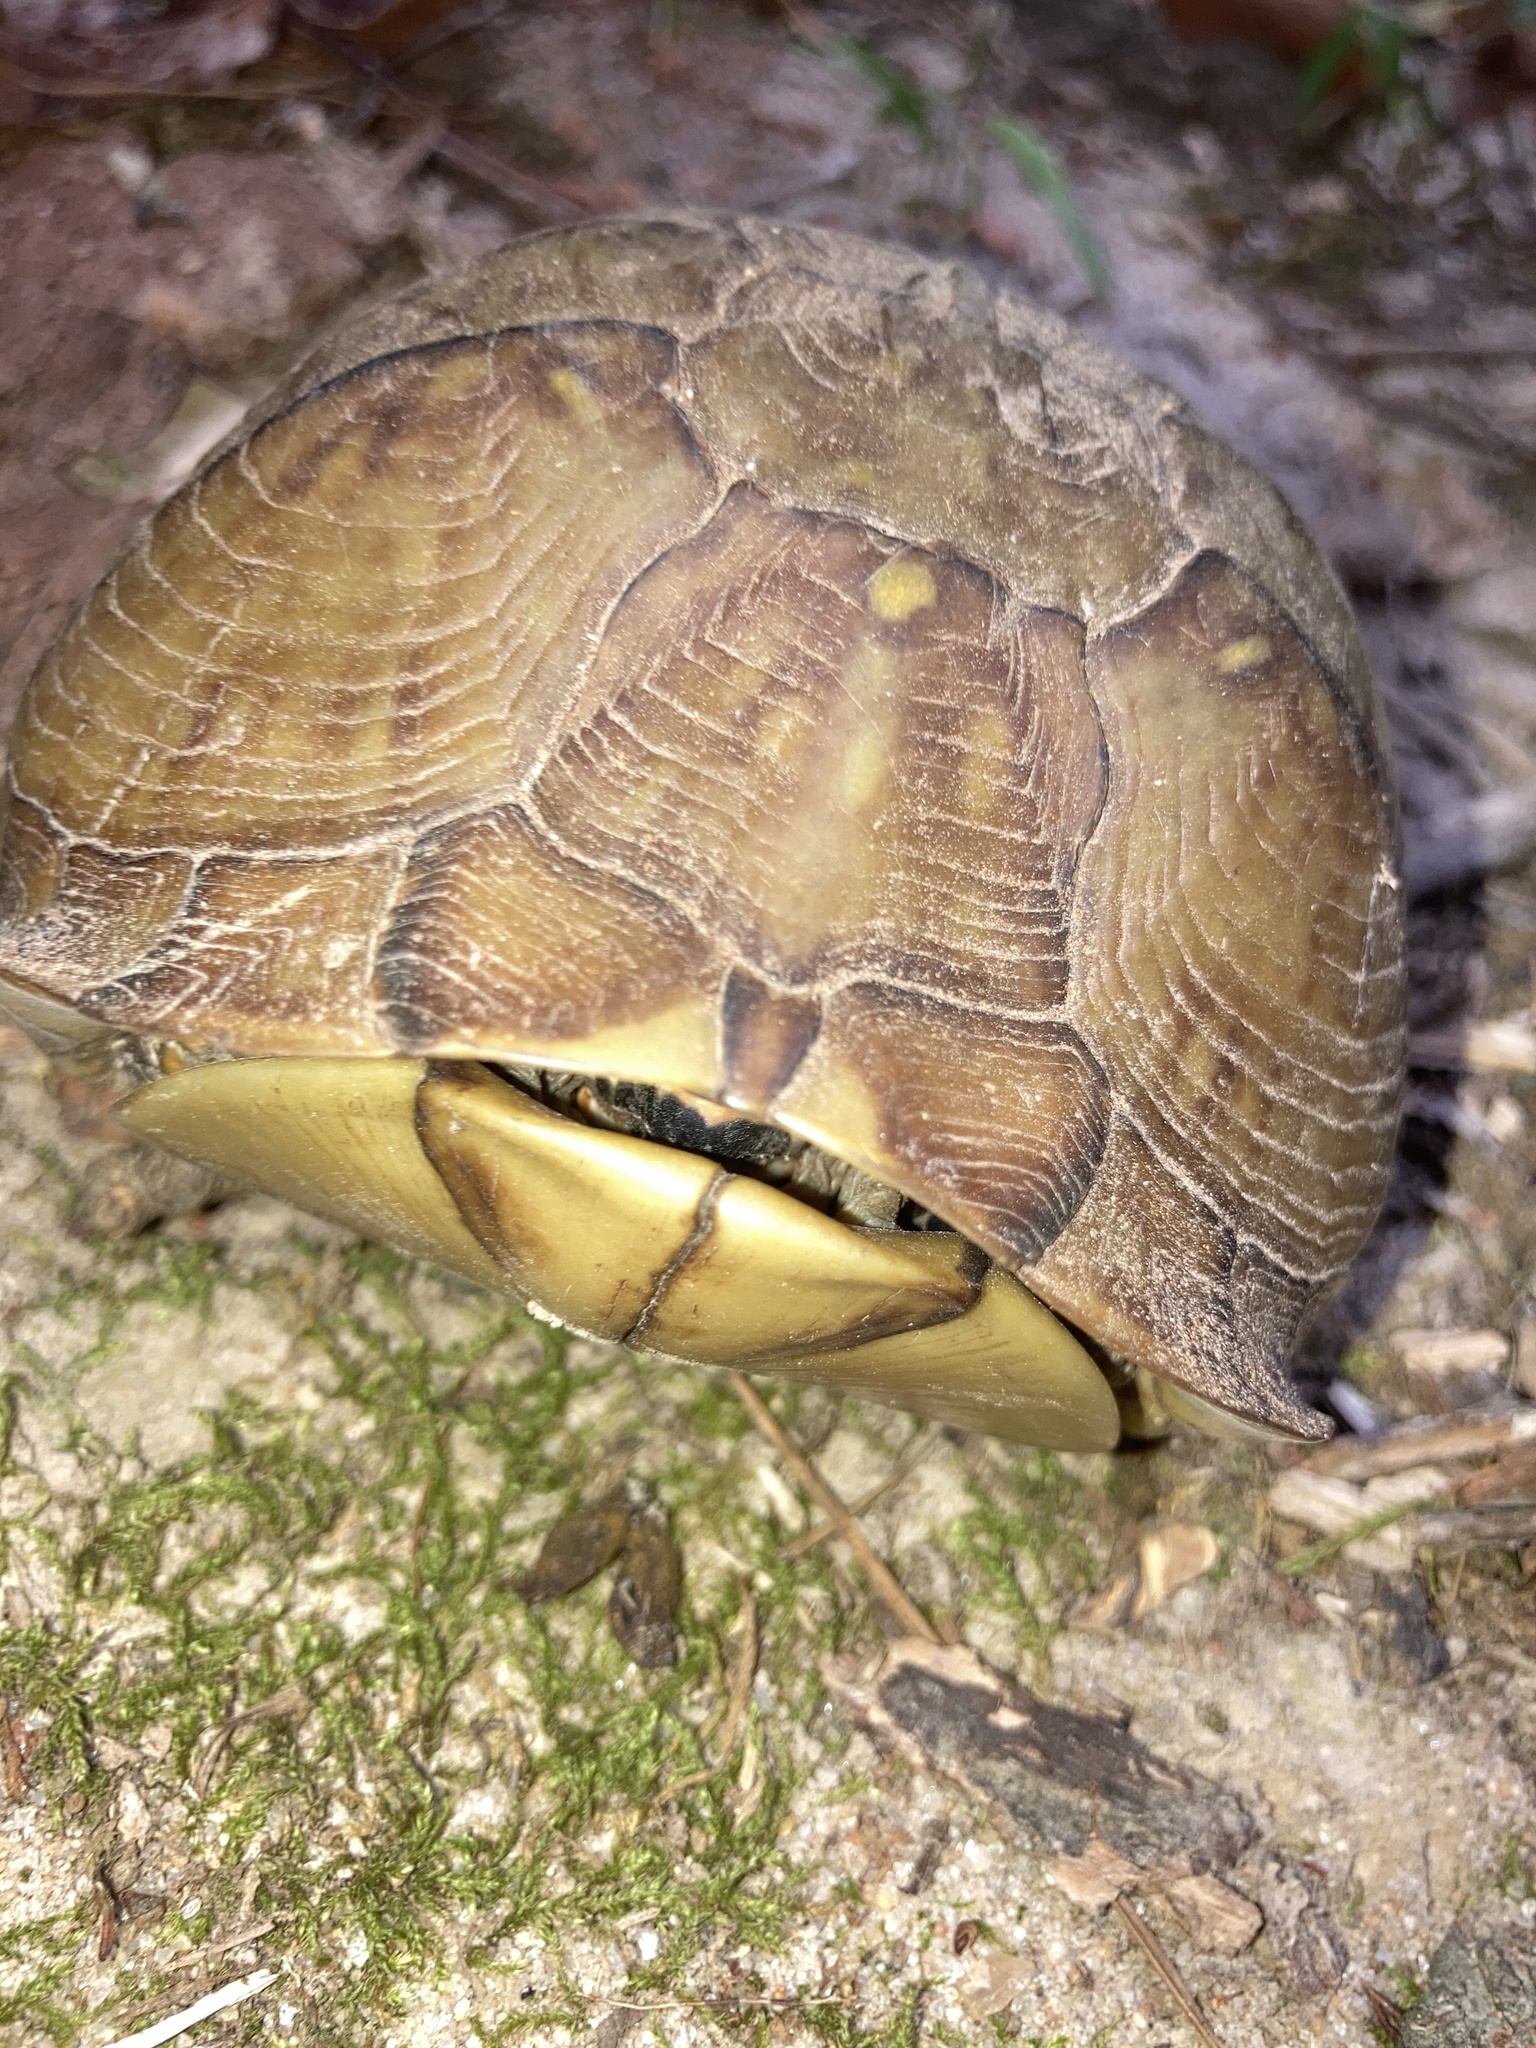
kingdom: Animalia
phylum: Chordata
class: Testudines
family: Emydidae
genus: Terrapene
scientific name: Terrapene carolina
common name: Common box turtle
